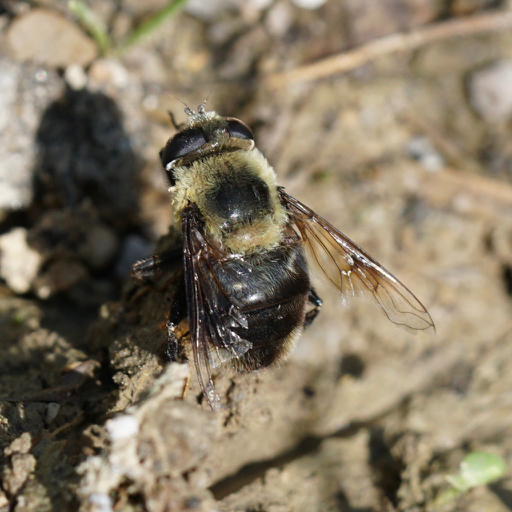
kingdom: Animalia
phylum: Arthropoda
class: Insecta
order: Diptera
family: Syrphidae
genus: Eristalis
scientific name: Eristalis anthophorina
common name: Orange-spotted drone fly
